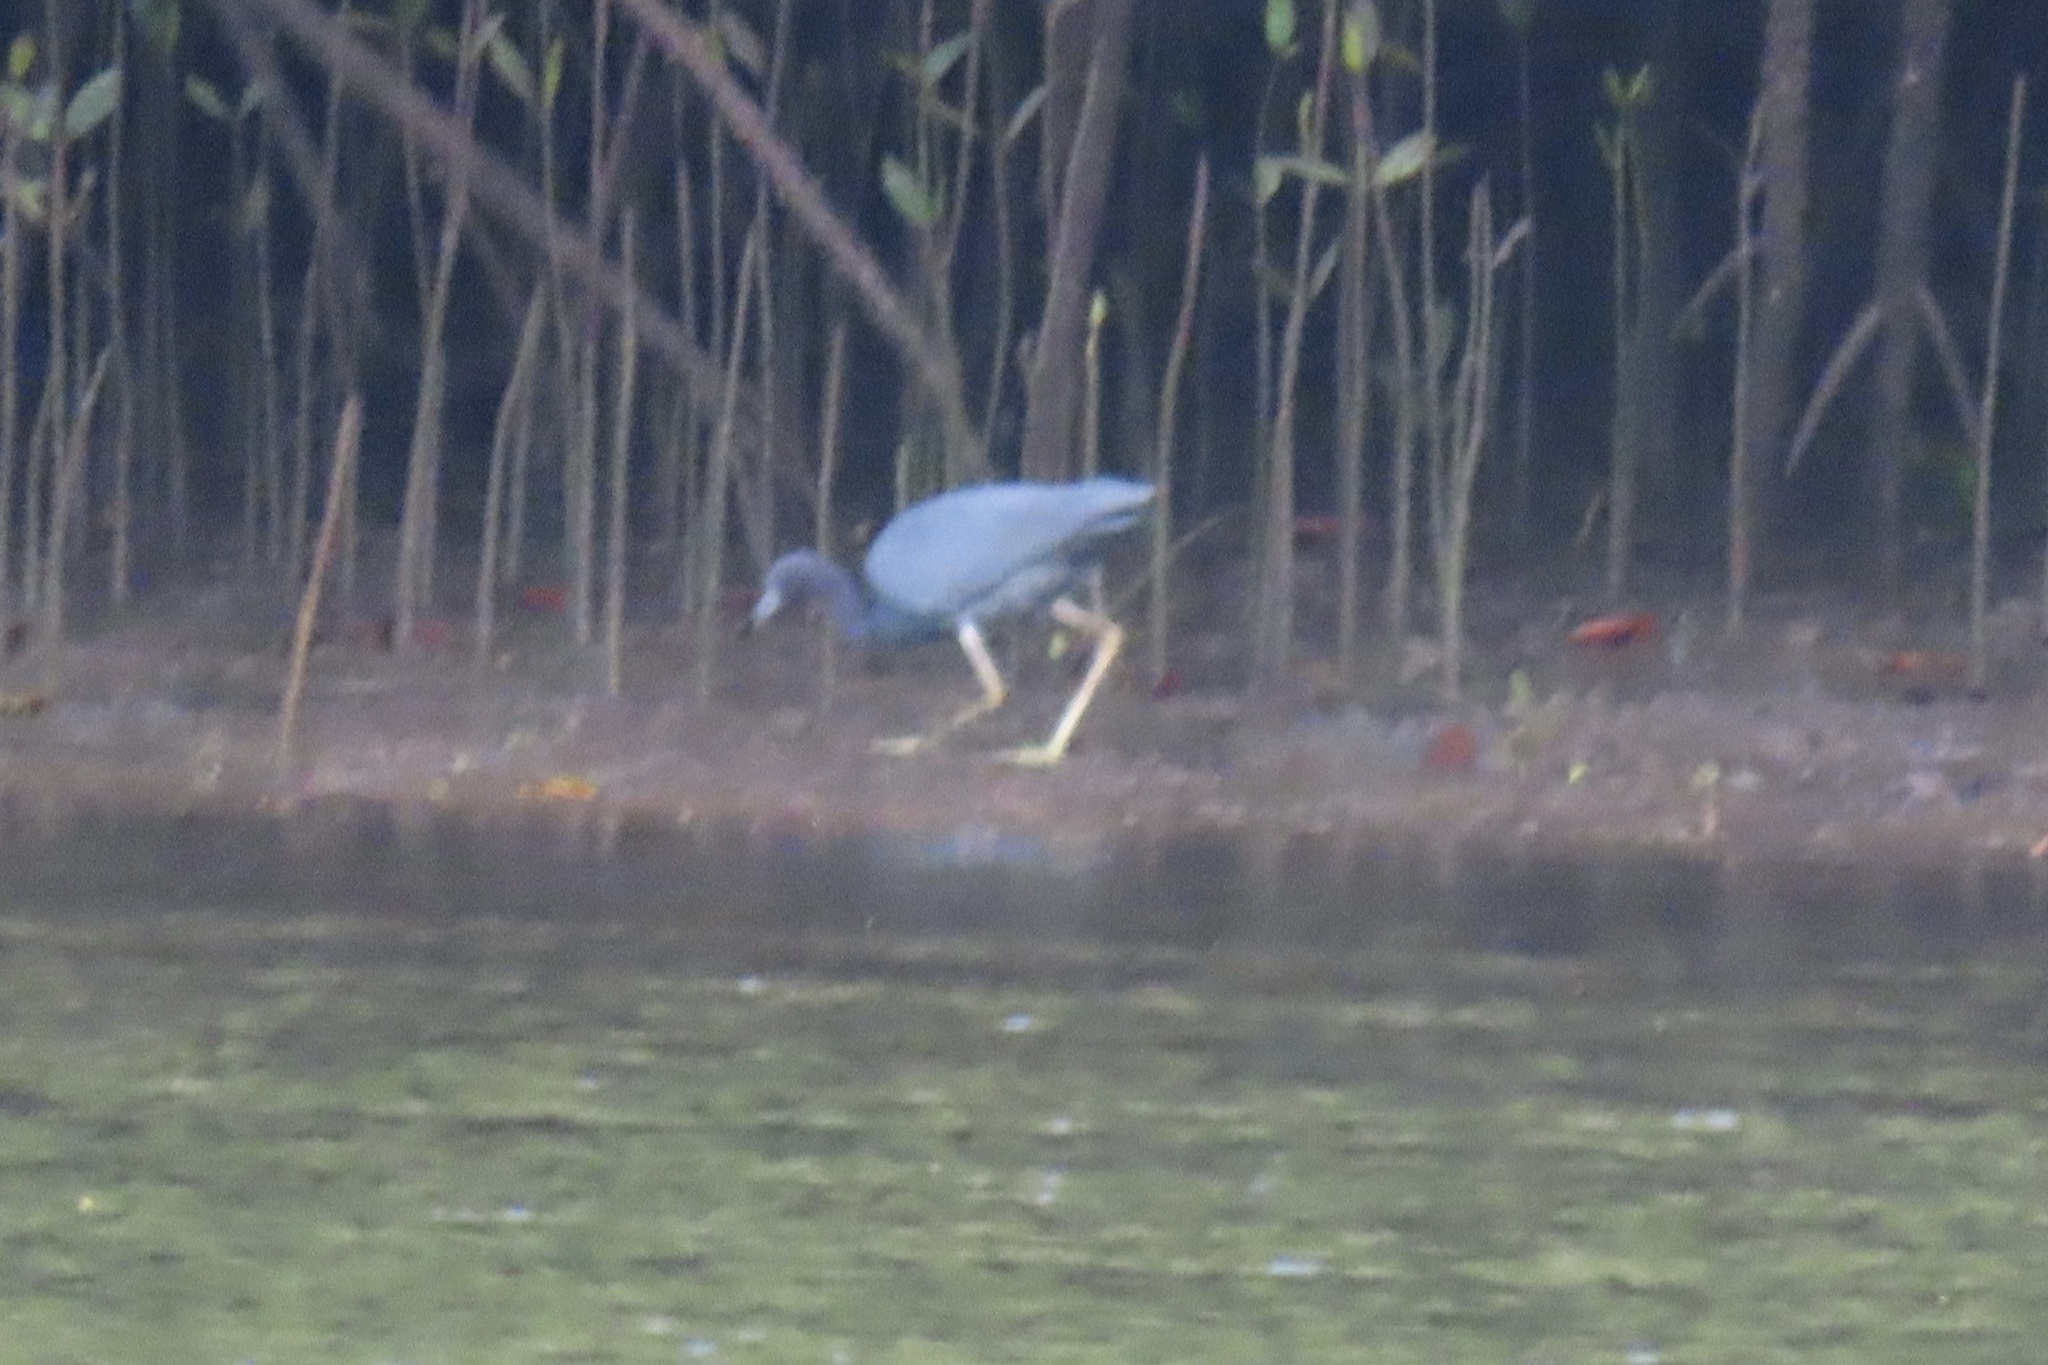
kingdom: Animalia
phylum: Chordata
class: Aves
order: Pelecaniformes
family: Ardeidae
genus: Egretta
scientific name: Egretta caerulea
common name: Little blue heron
